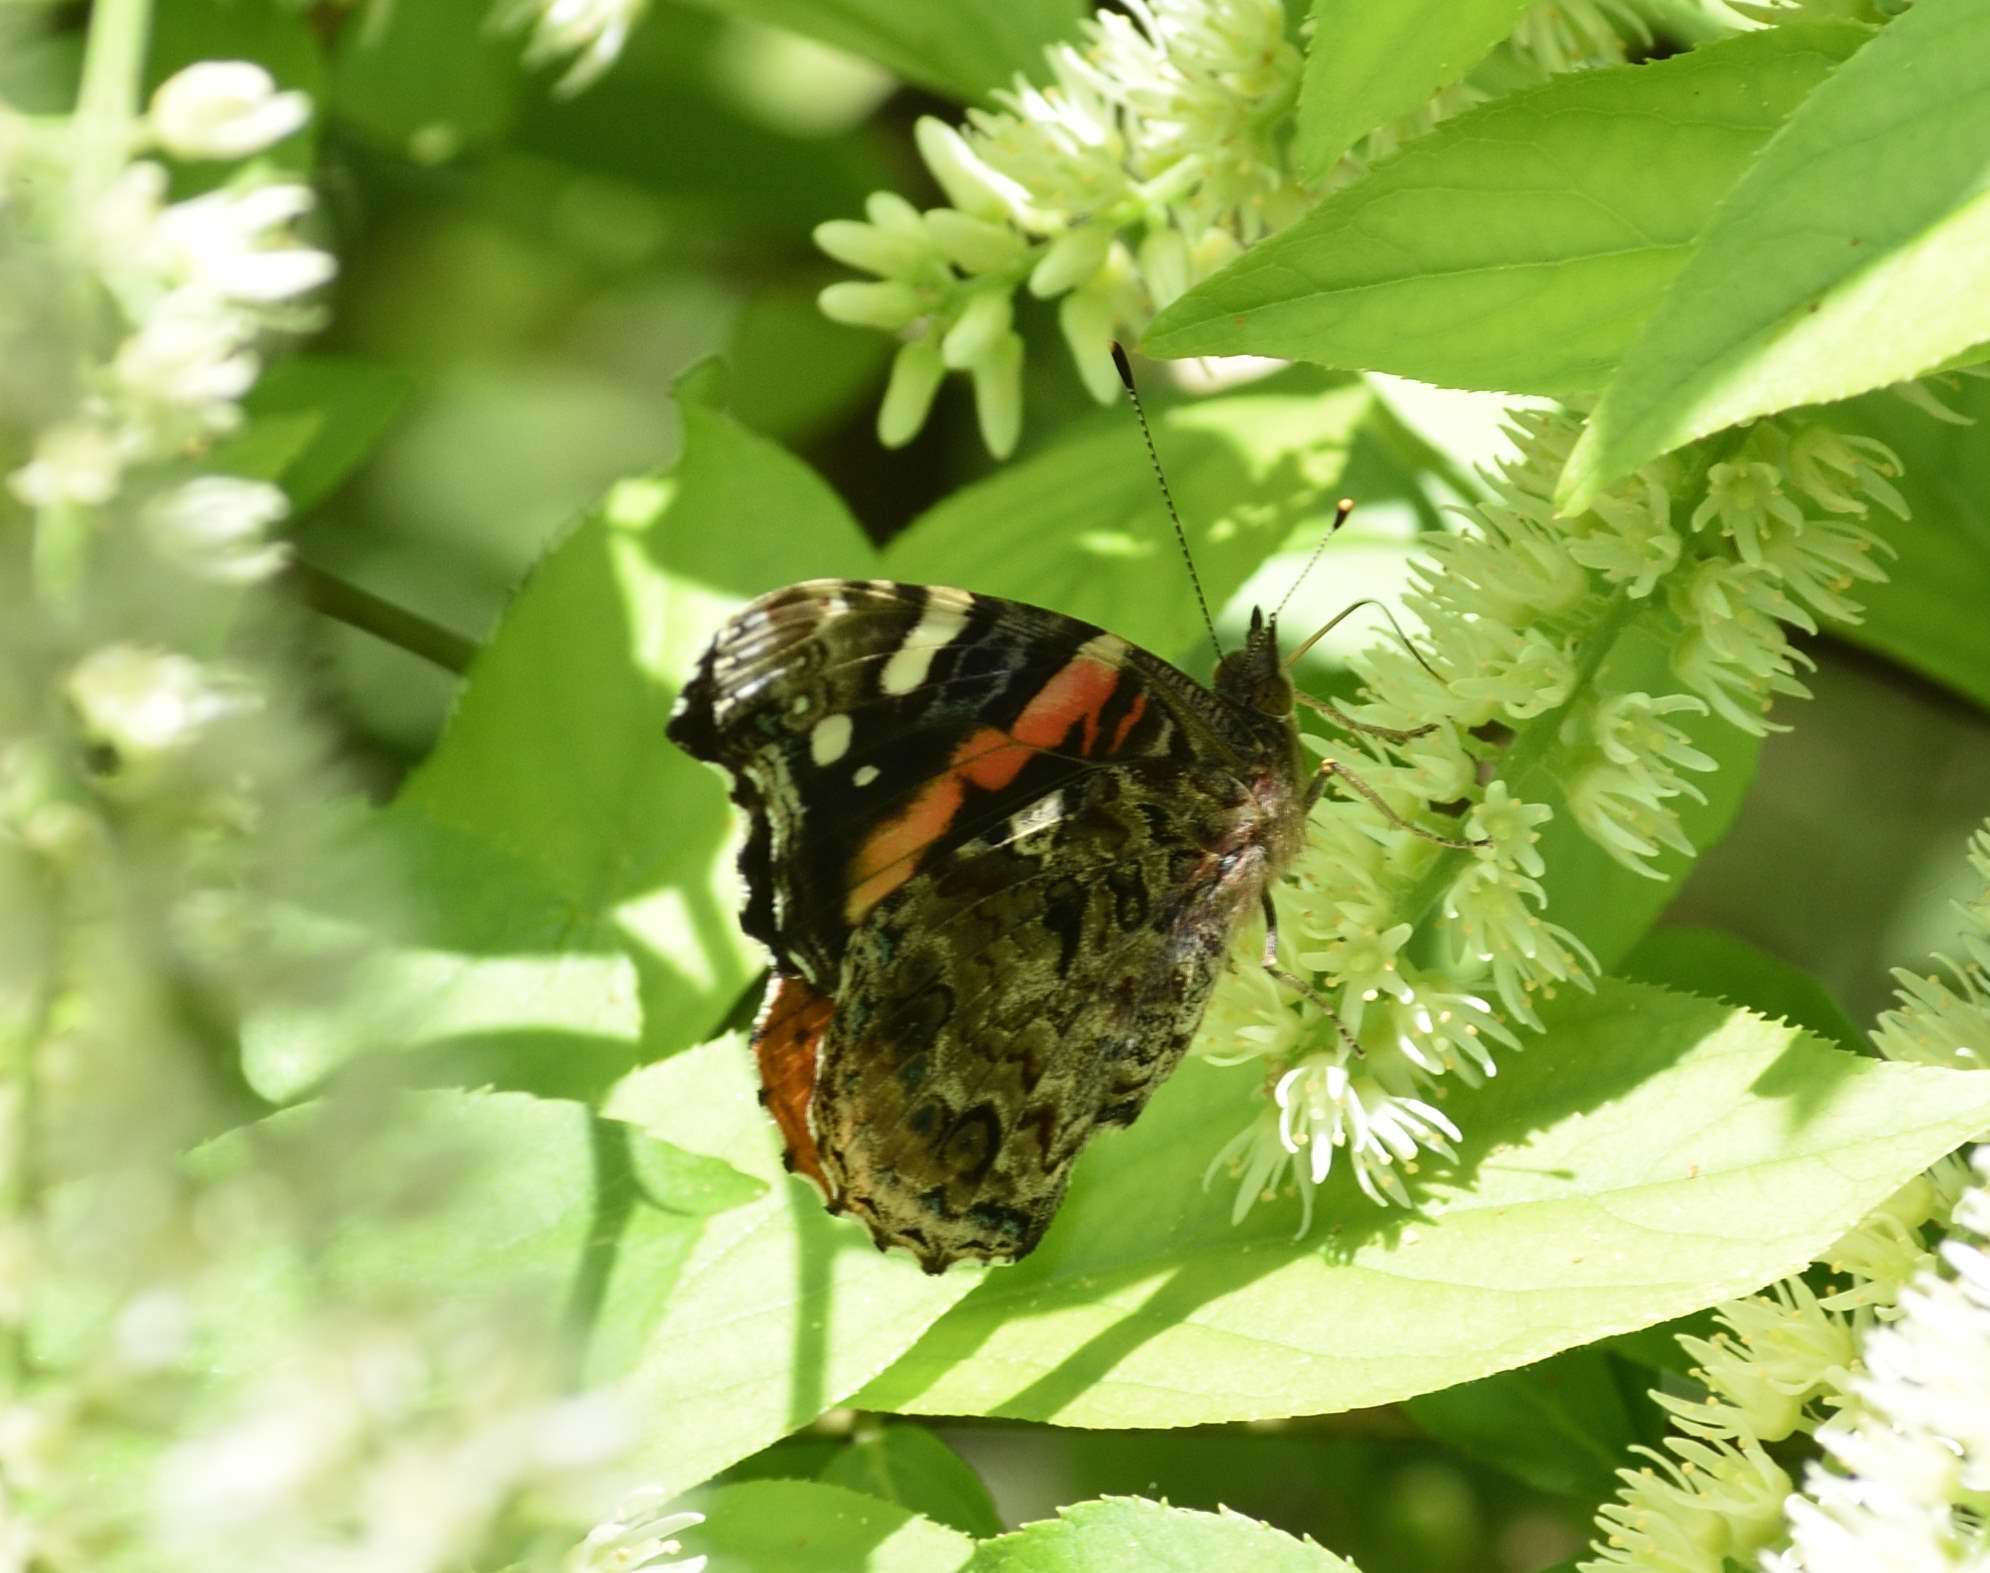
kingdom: Animalia
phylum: Arthropoda
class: Insecta
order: Lepidoptera
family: Nymphalidae
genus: Vanessa
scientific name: Vanessa atalanta
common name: Red admiral
